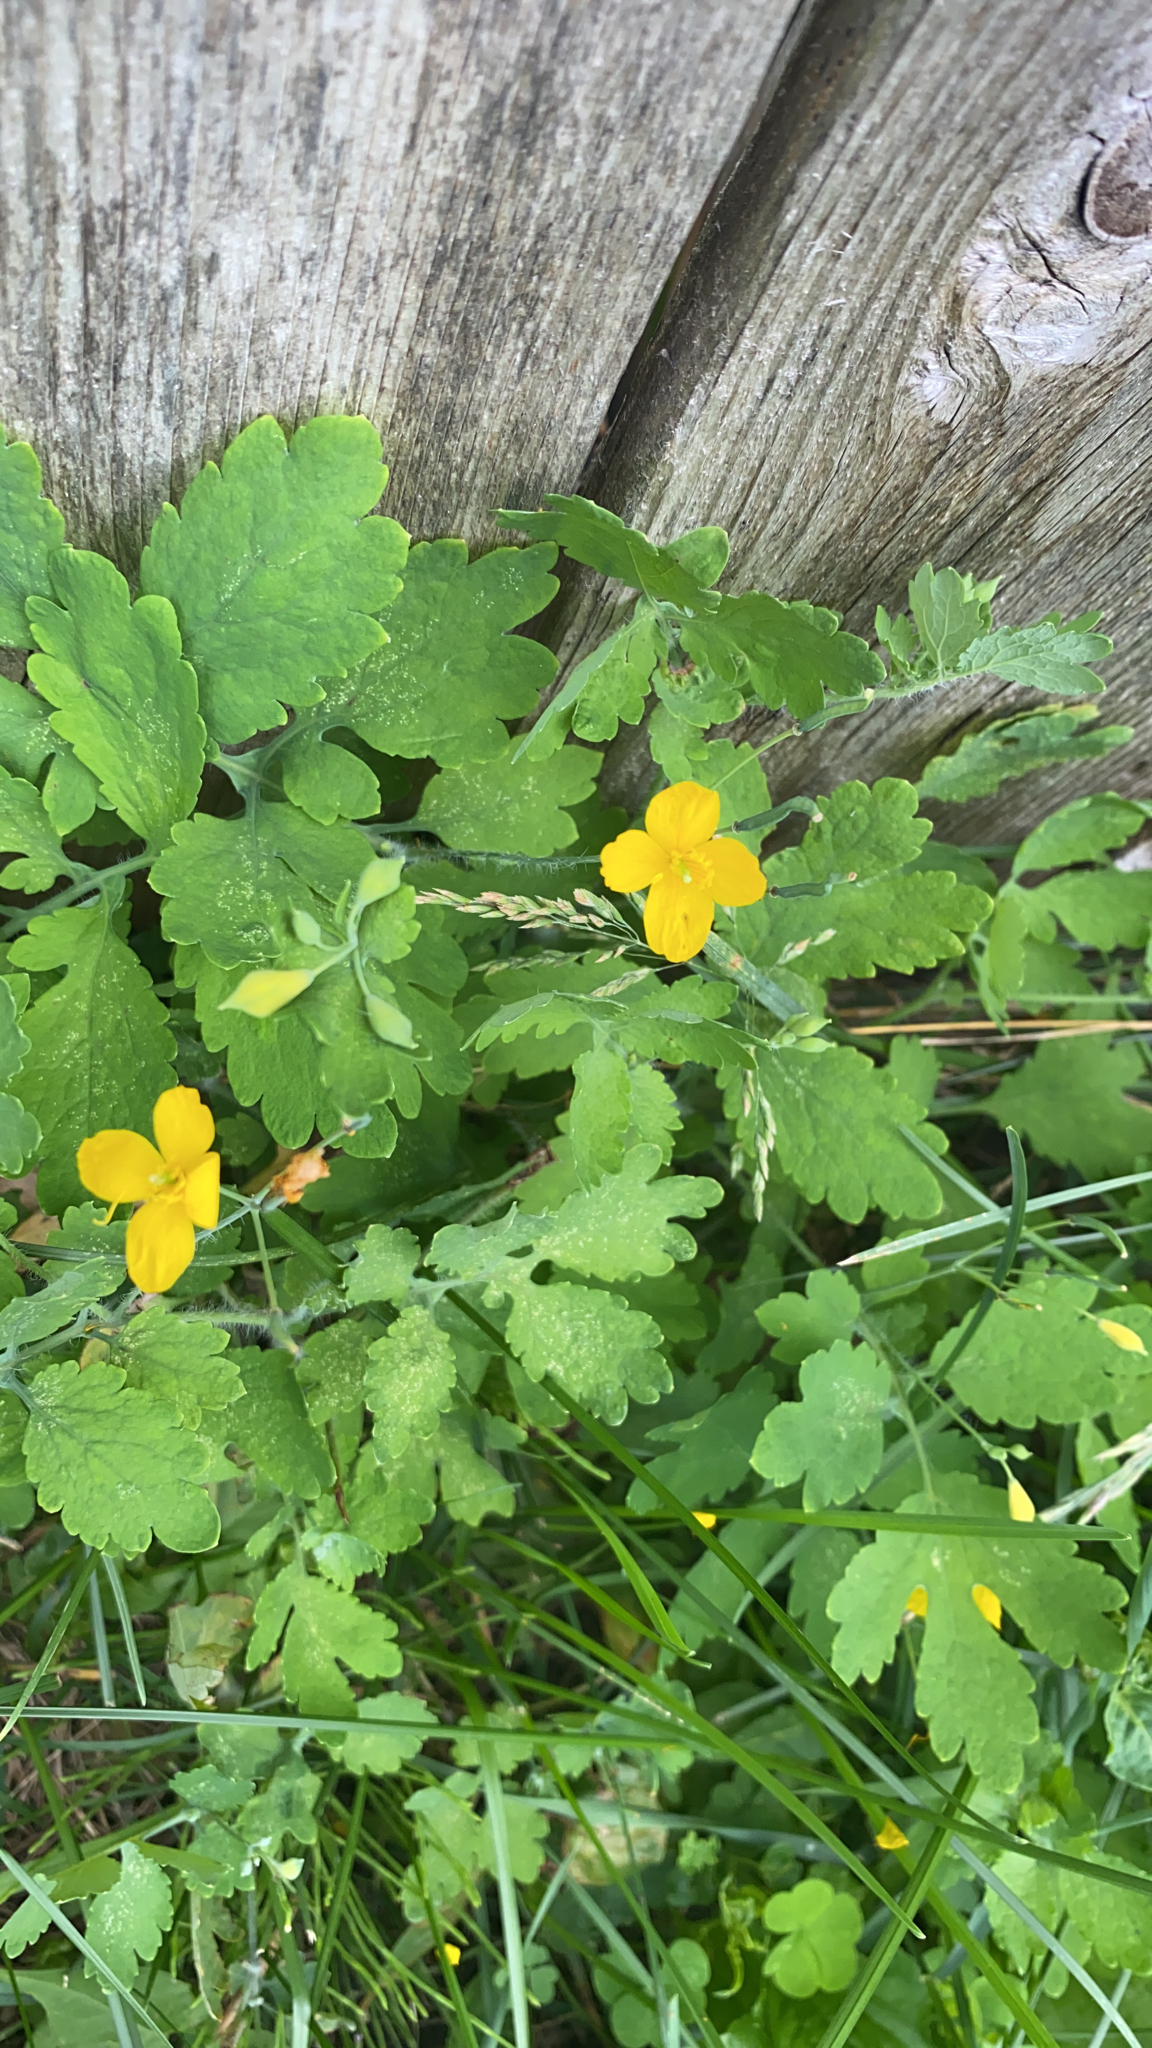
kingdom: Plantae
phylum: Tracheophyta
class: Magnoliopsida
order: Ranunculales
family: Papaveraceae
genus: Chelidonium
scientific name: Chelidonium majus
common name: Greater celandine
